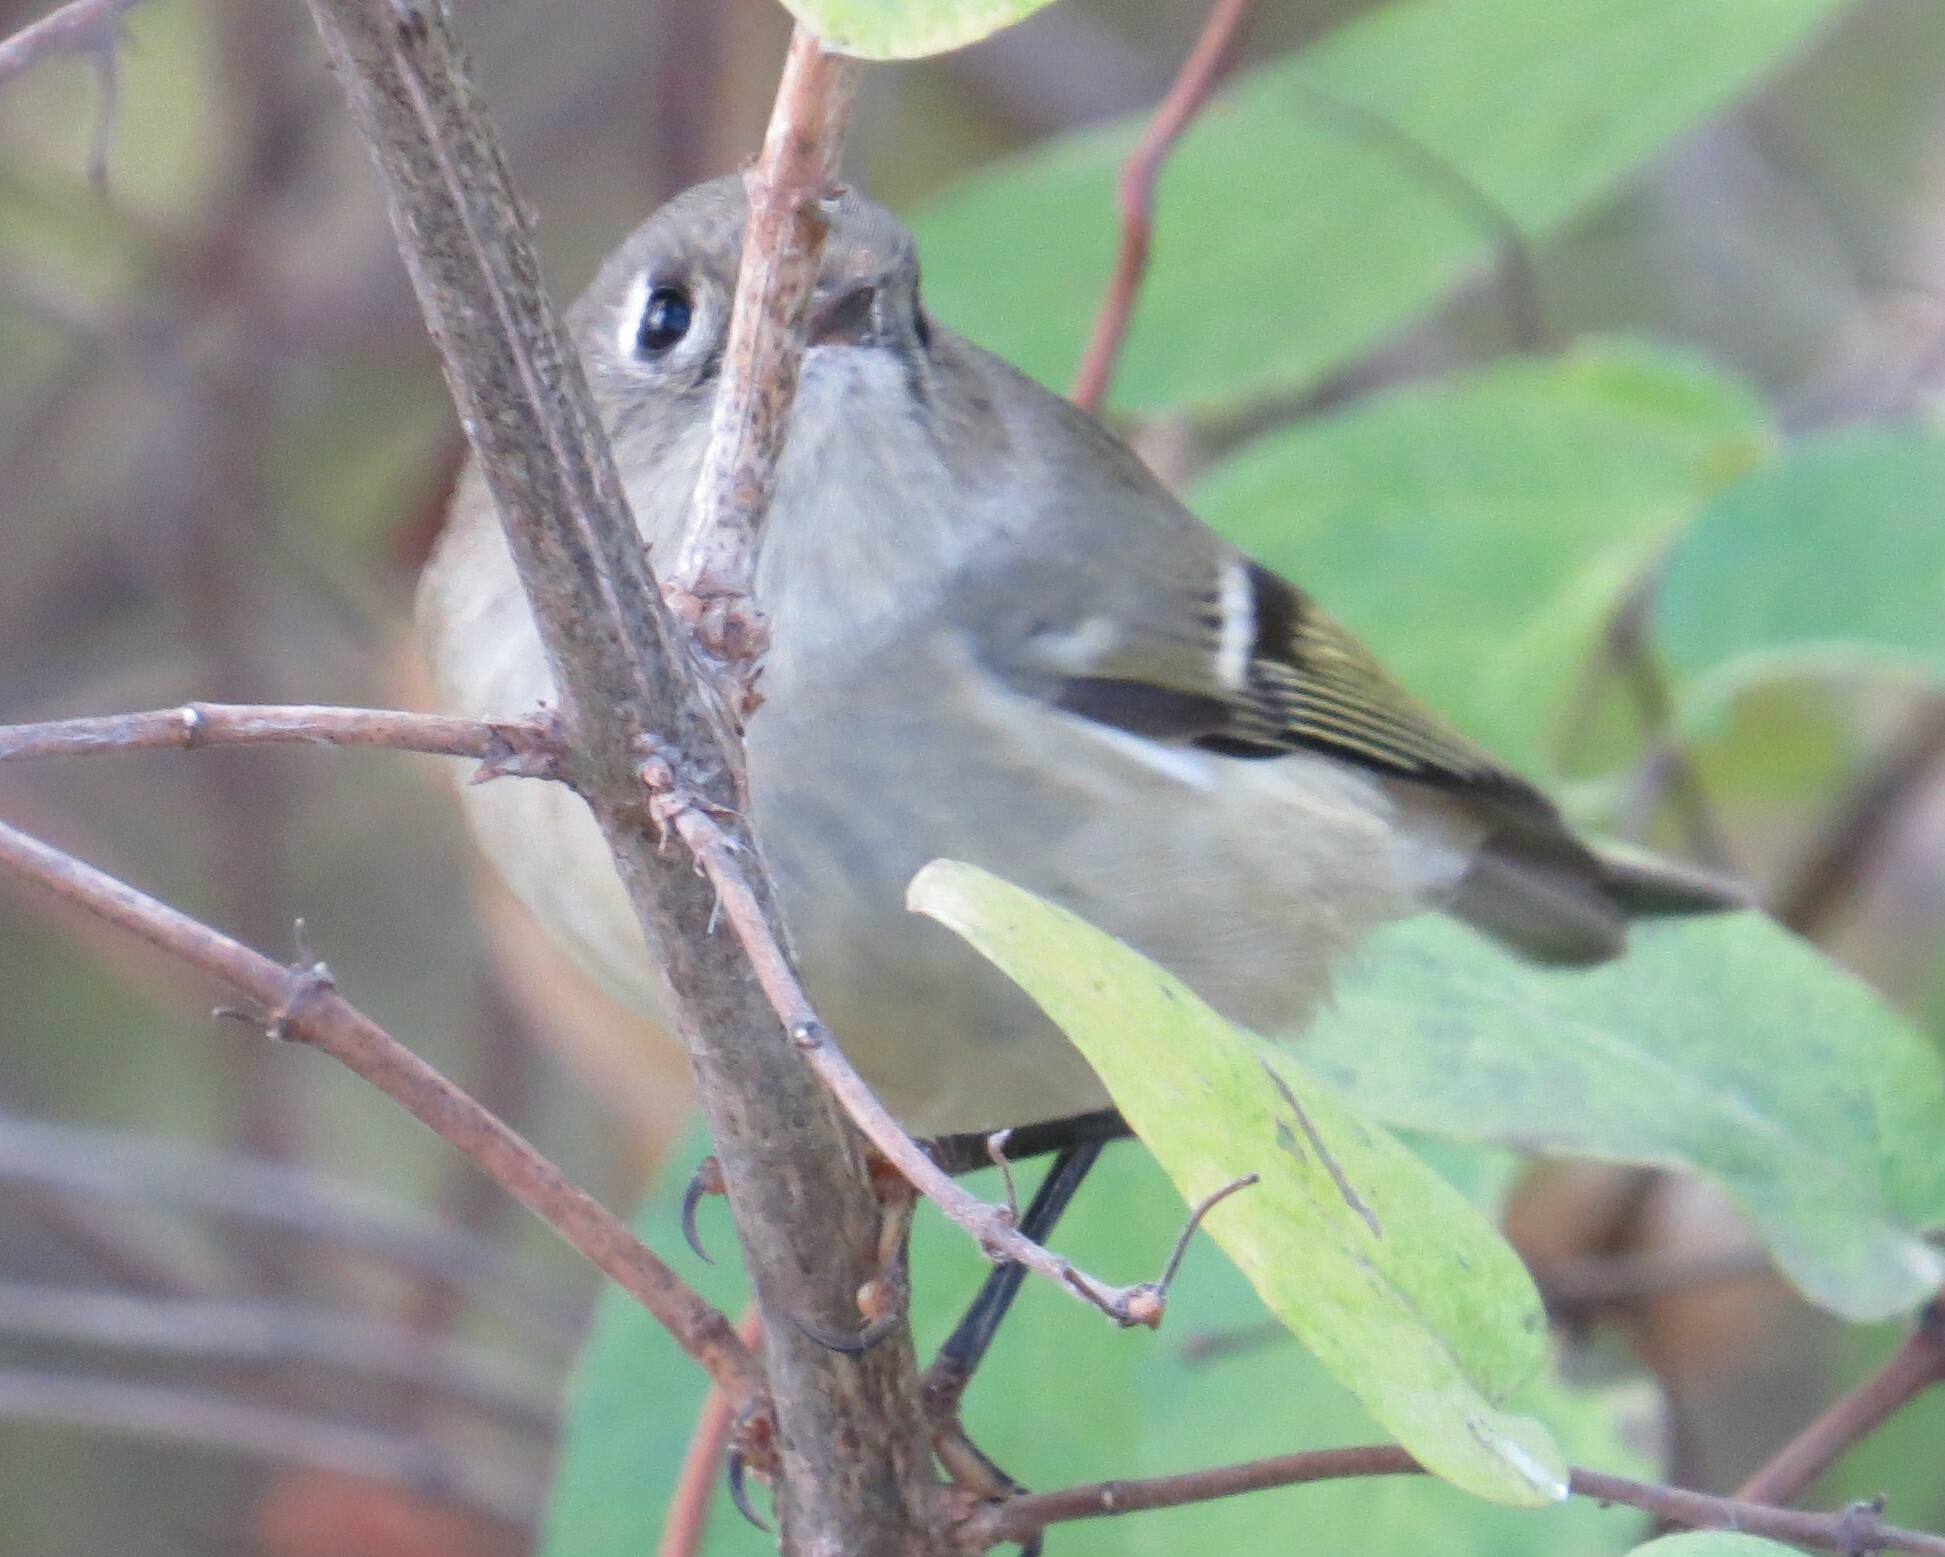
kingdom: Animalia
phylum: Chordata
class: Aves
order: Passeriformes
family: Regulidae
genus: Regulus
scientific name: Regulus calendula
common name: Ruby-crowned kinglet
